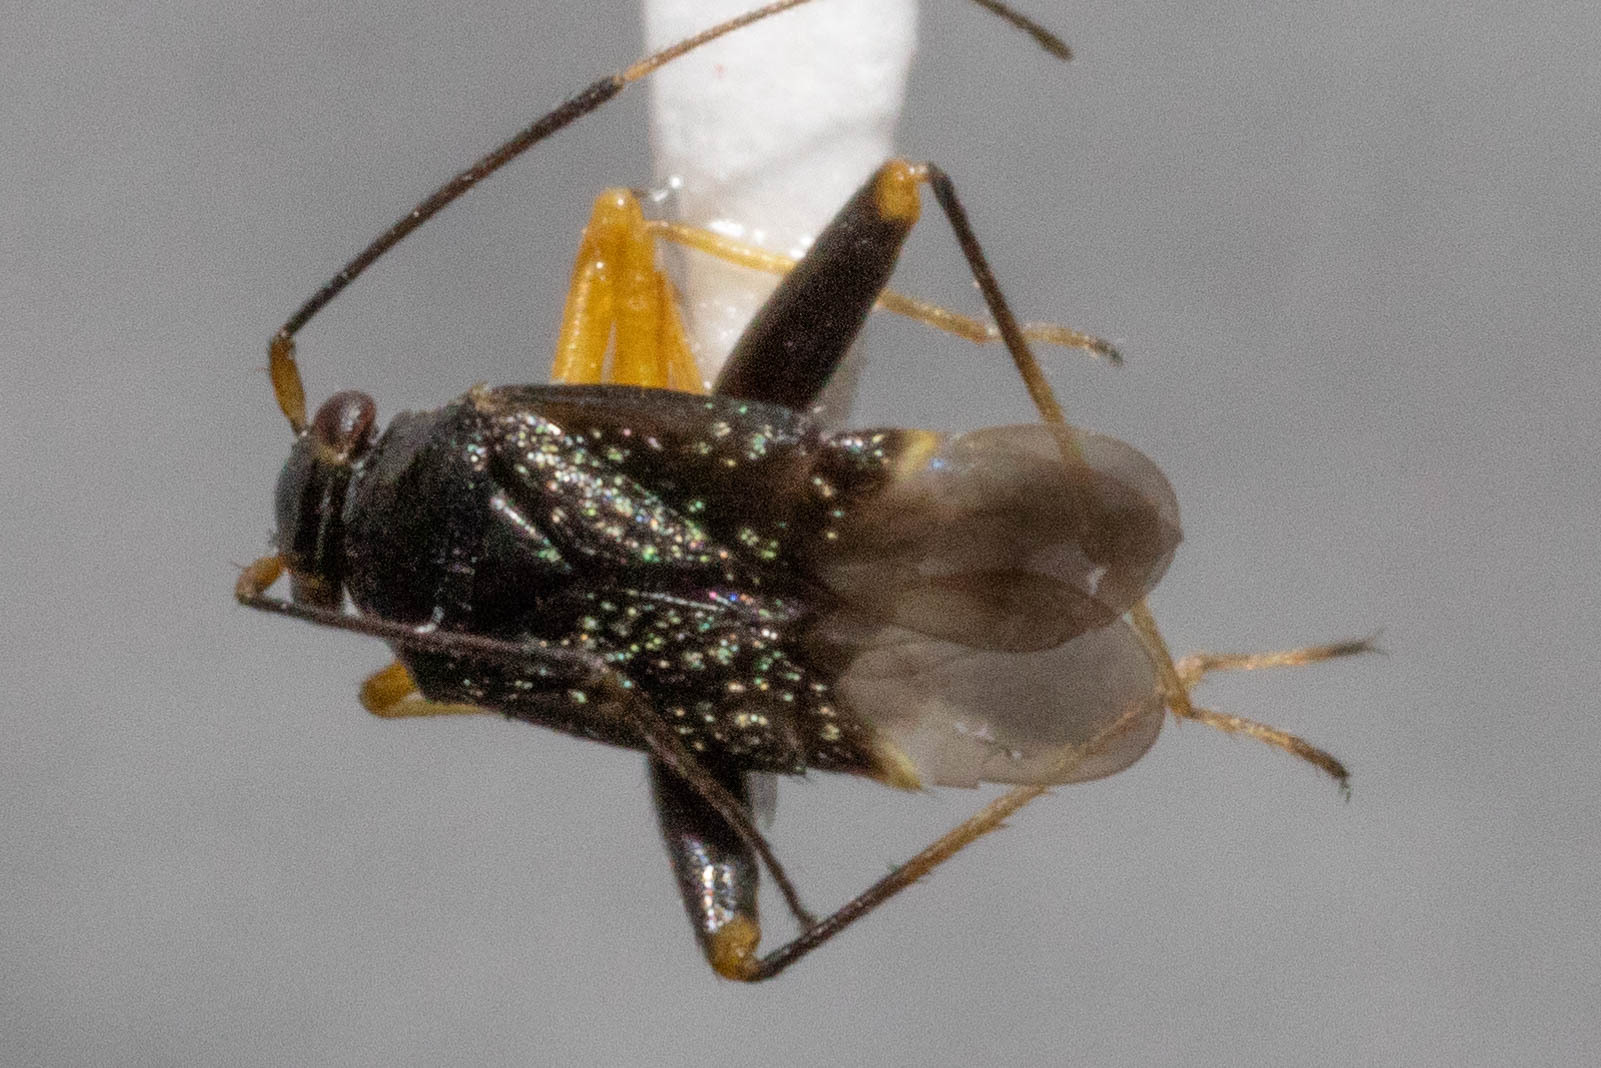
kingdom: Animalia
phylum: Arthropoda
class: Insecta
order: Hemiptera
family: Miridae
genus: Microtechnites
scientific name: Microtechnites bractatus
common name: Garden fleahopper
